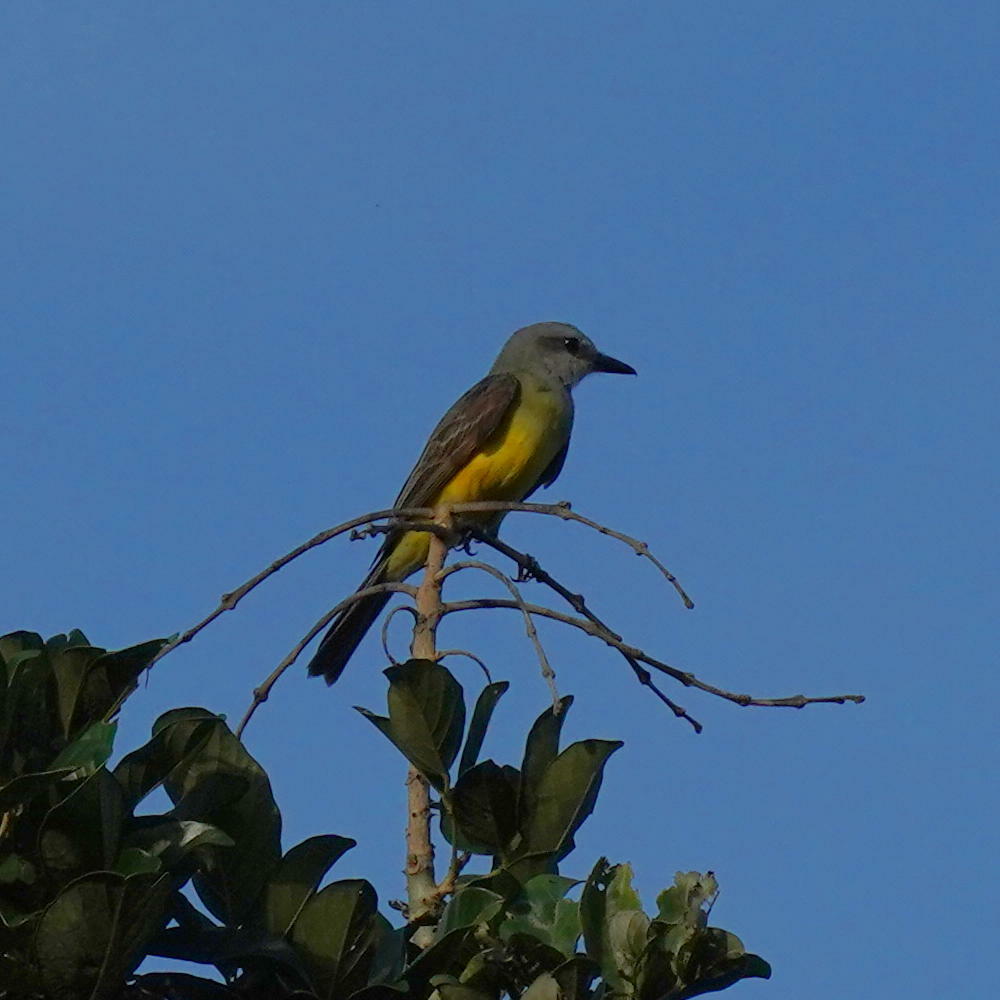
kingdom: Animalia
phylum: Chordata
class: Aves
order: Passeriformes
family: Tyrannidae
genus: Tyrannus
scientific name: Tyrannus melancholicus
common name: Tropical kingbird
